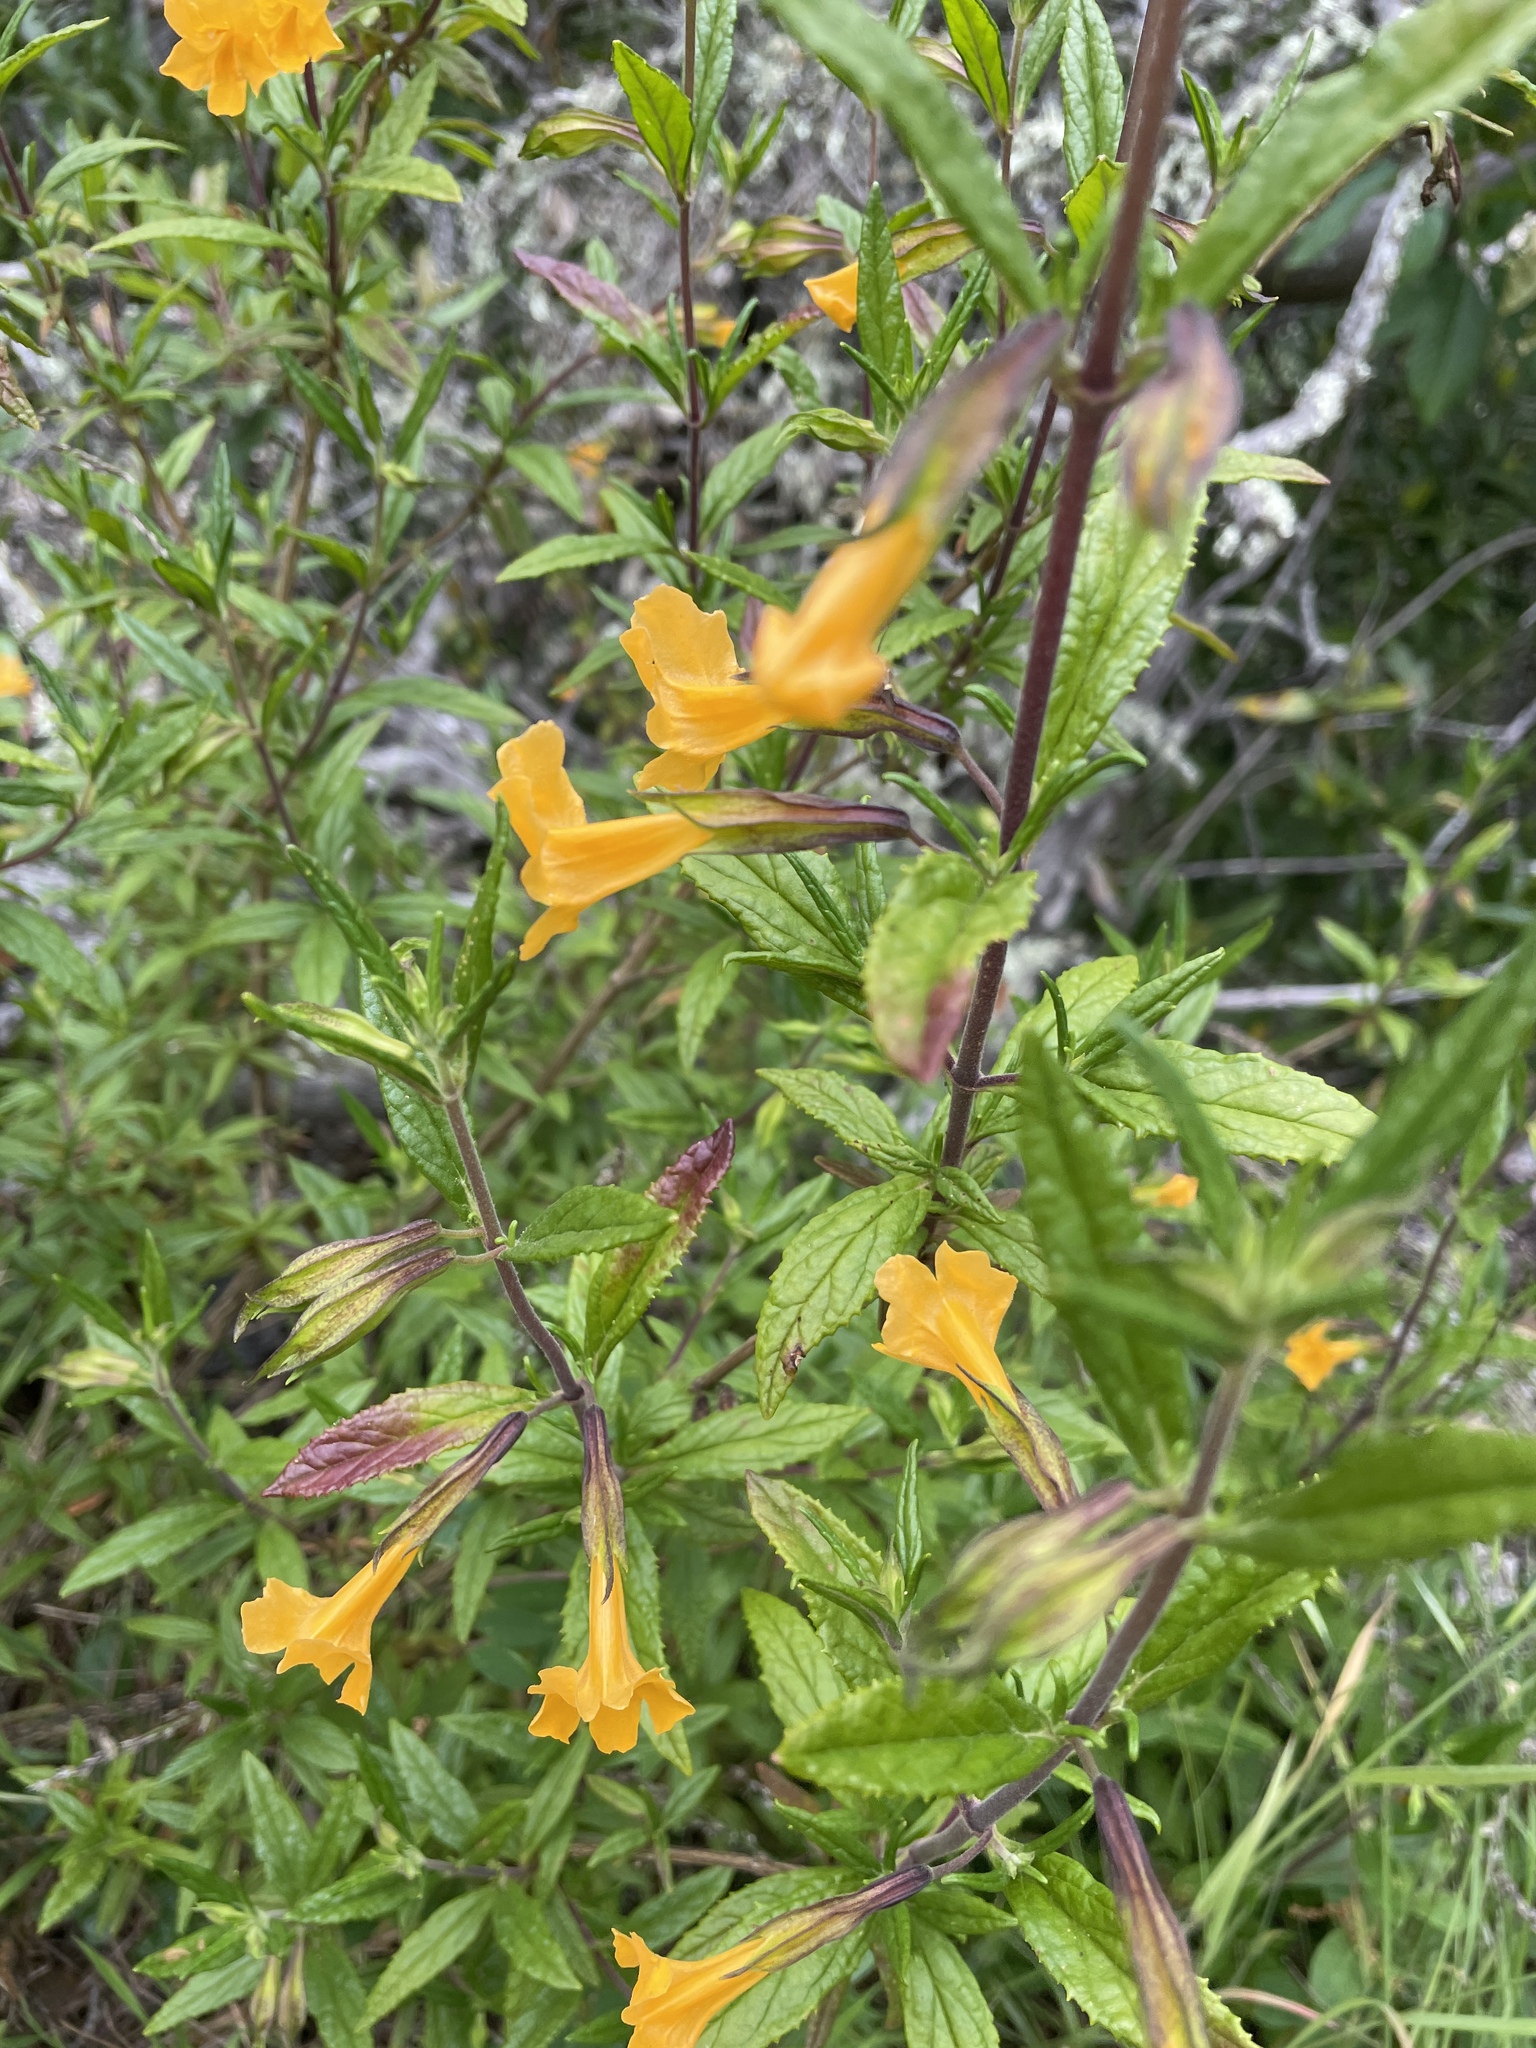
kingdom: Plantae
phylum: Tracheophyta
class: Magnoliopsida
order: Lamiales
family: Phrymaceae
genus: Diplacus
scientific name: Diplacus aurantiacus
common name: Bush monkey-flower
